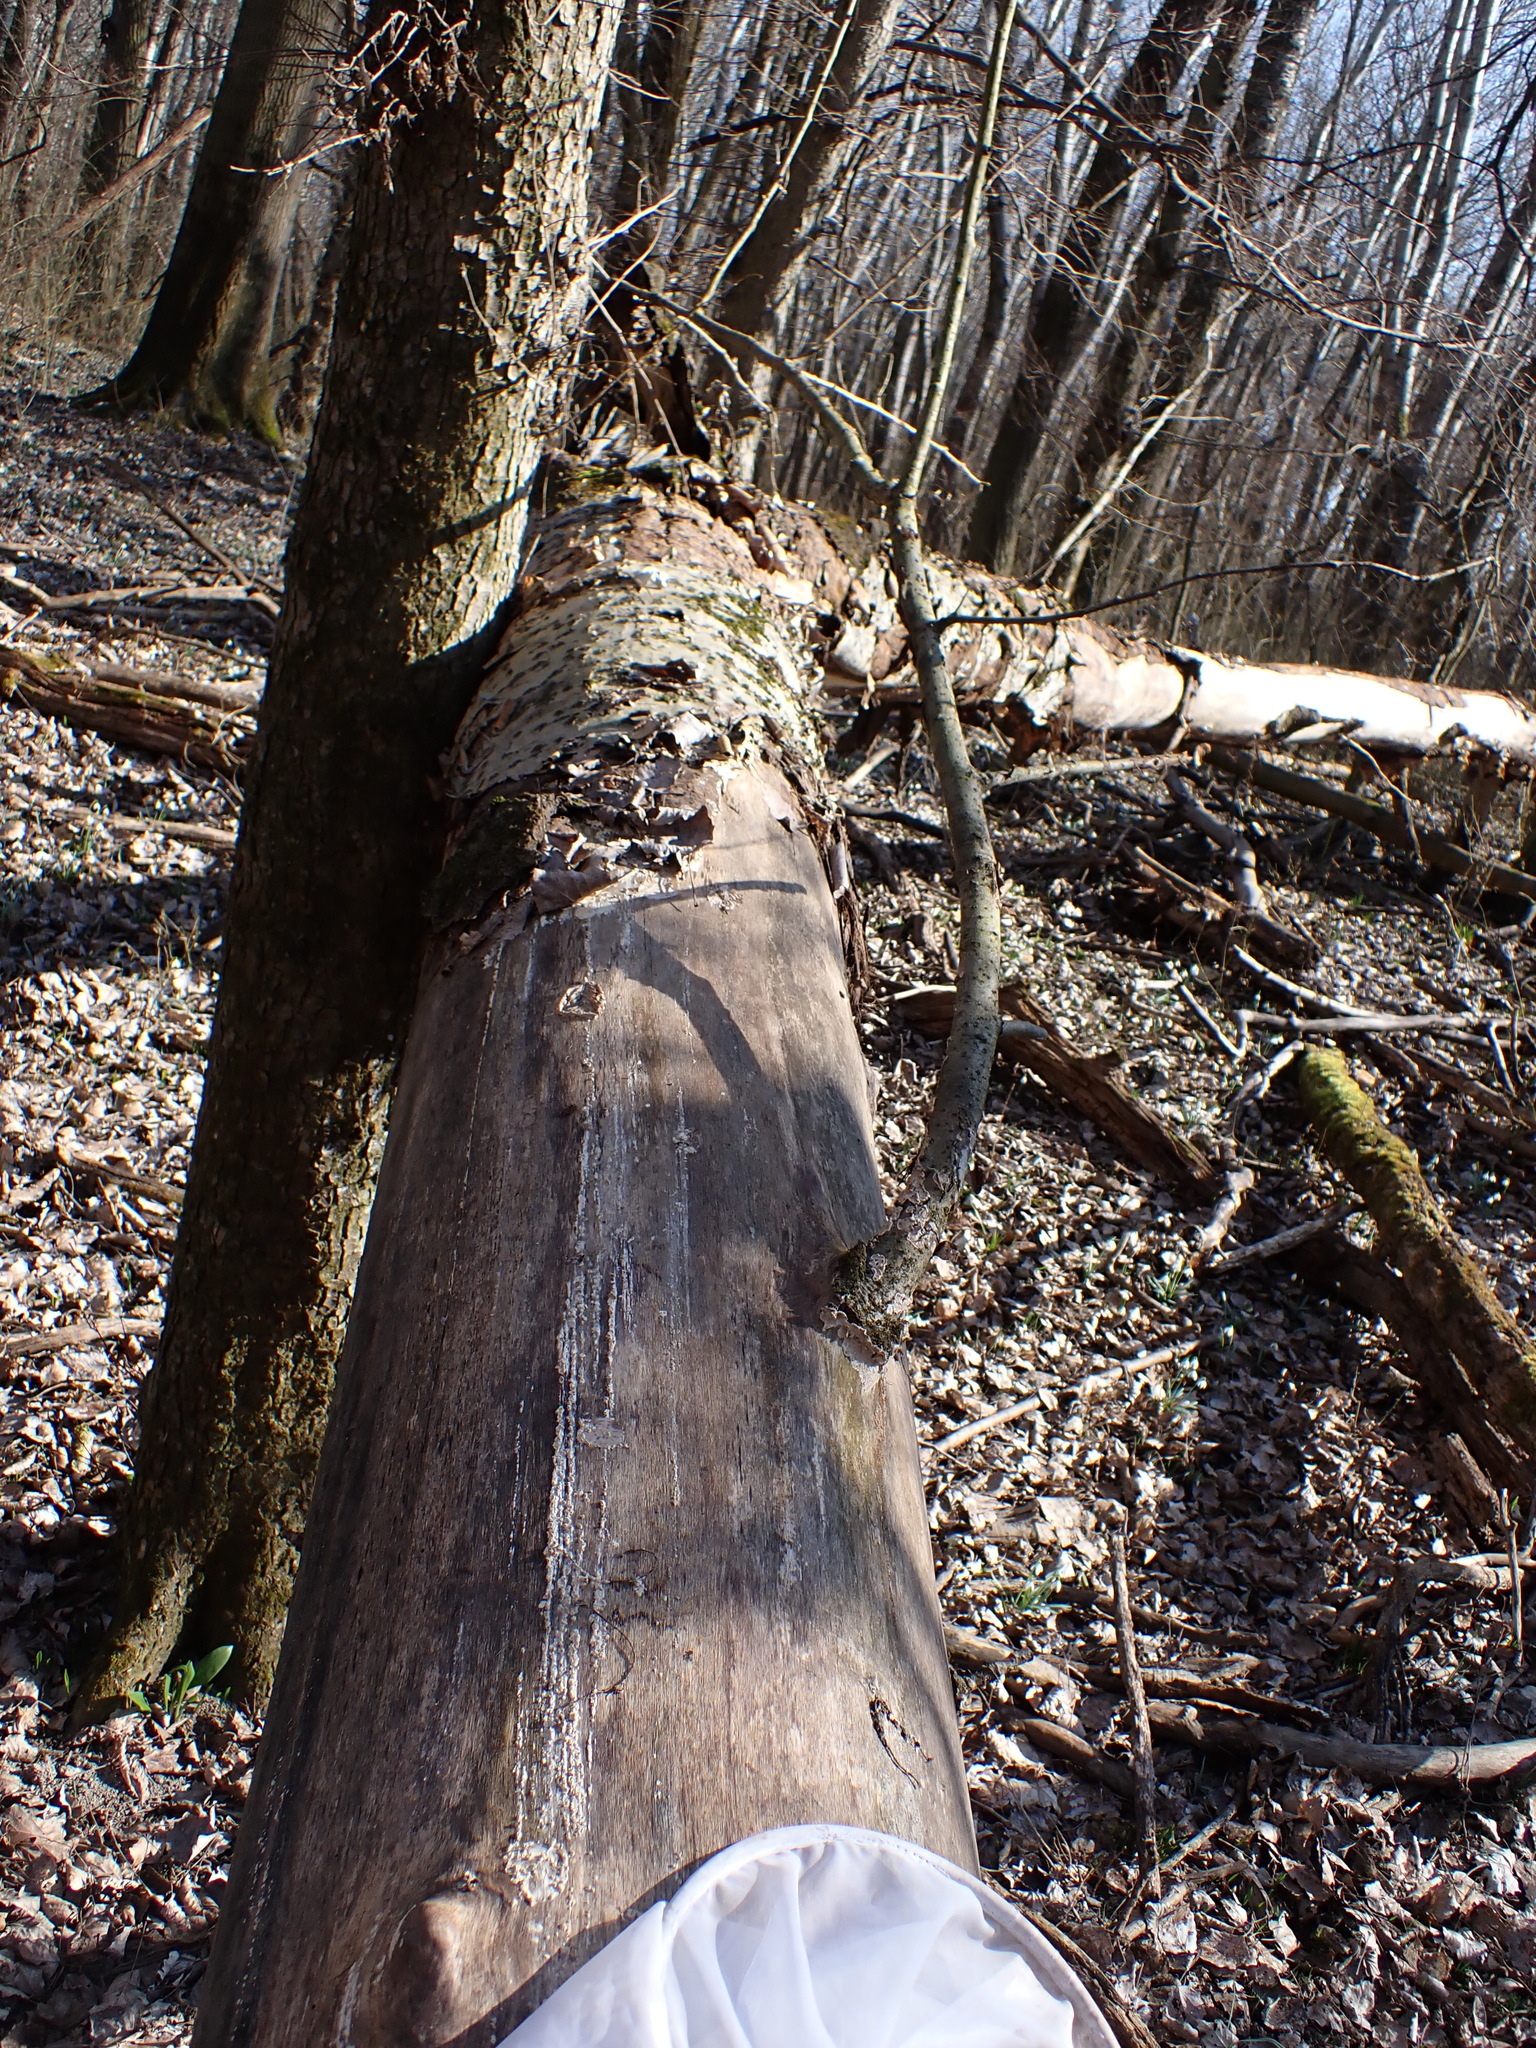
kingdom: Fungi
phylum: Ascomycota
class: Sordariomycetes
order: Hypocreales
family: Nectriaceae
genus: Nectria
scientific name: Nectria nigrescens
